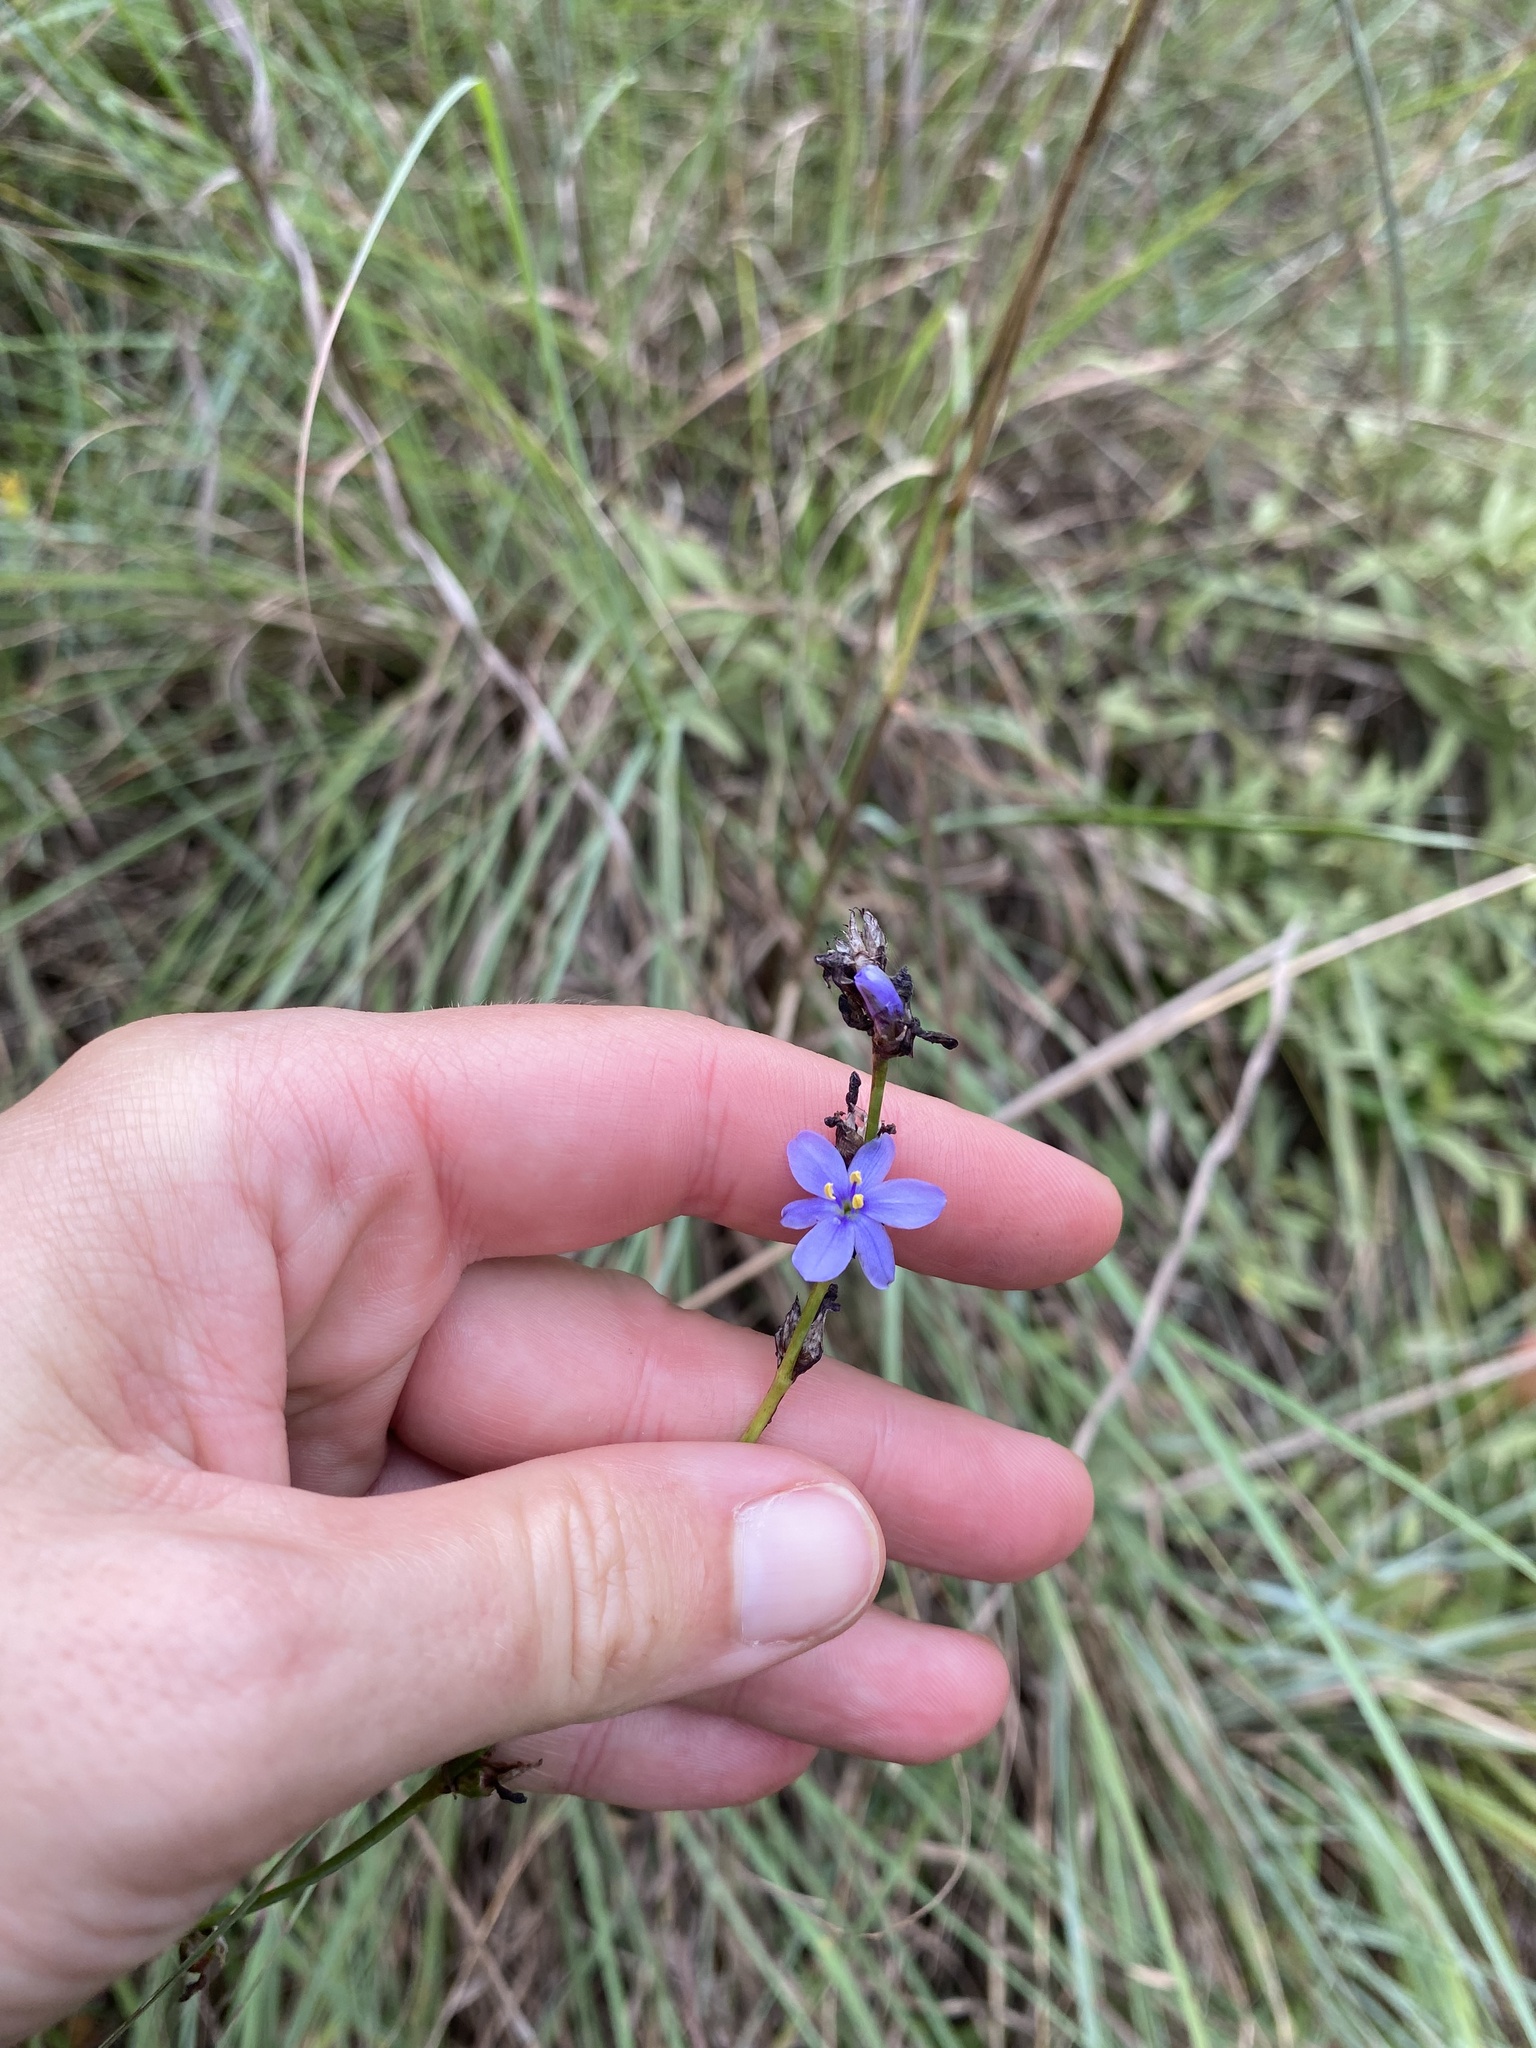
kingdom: Plantae
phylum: Tracheophyta
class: Liliopsida
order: Asparagales
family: Iridaceae
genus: Aristea
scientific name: Aristea torulosa
